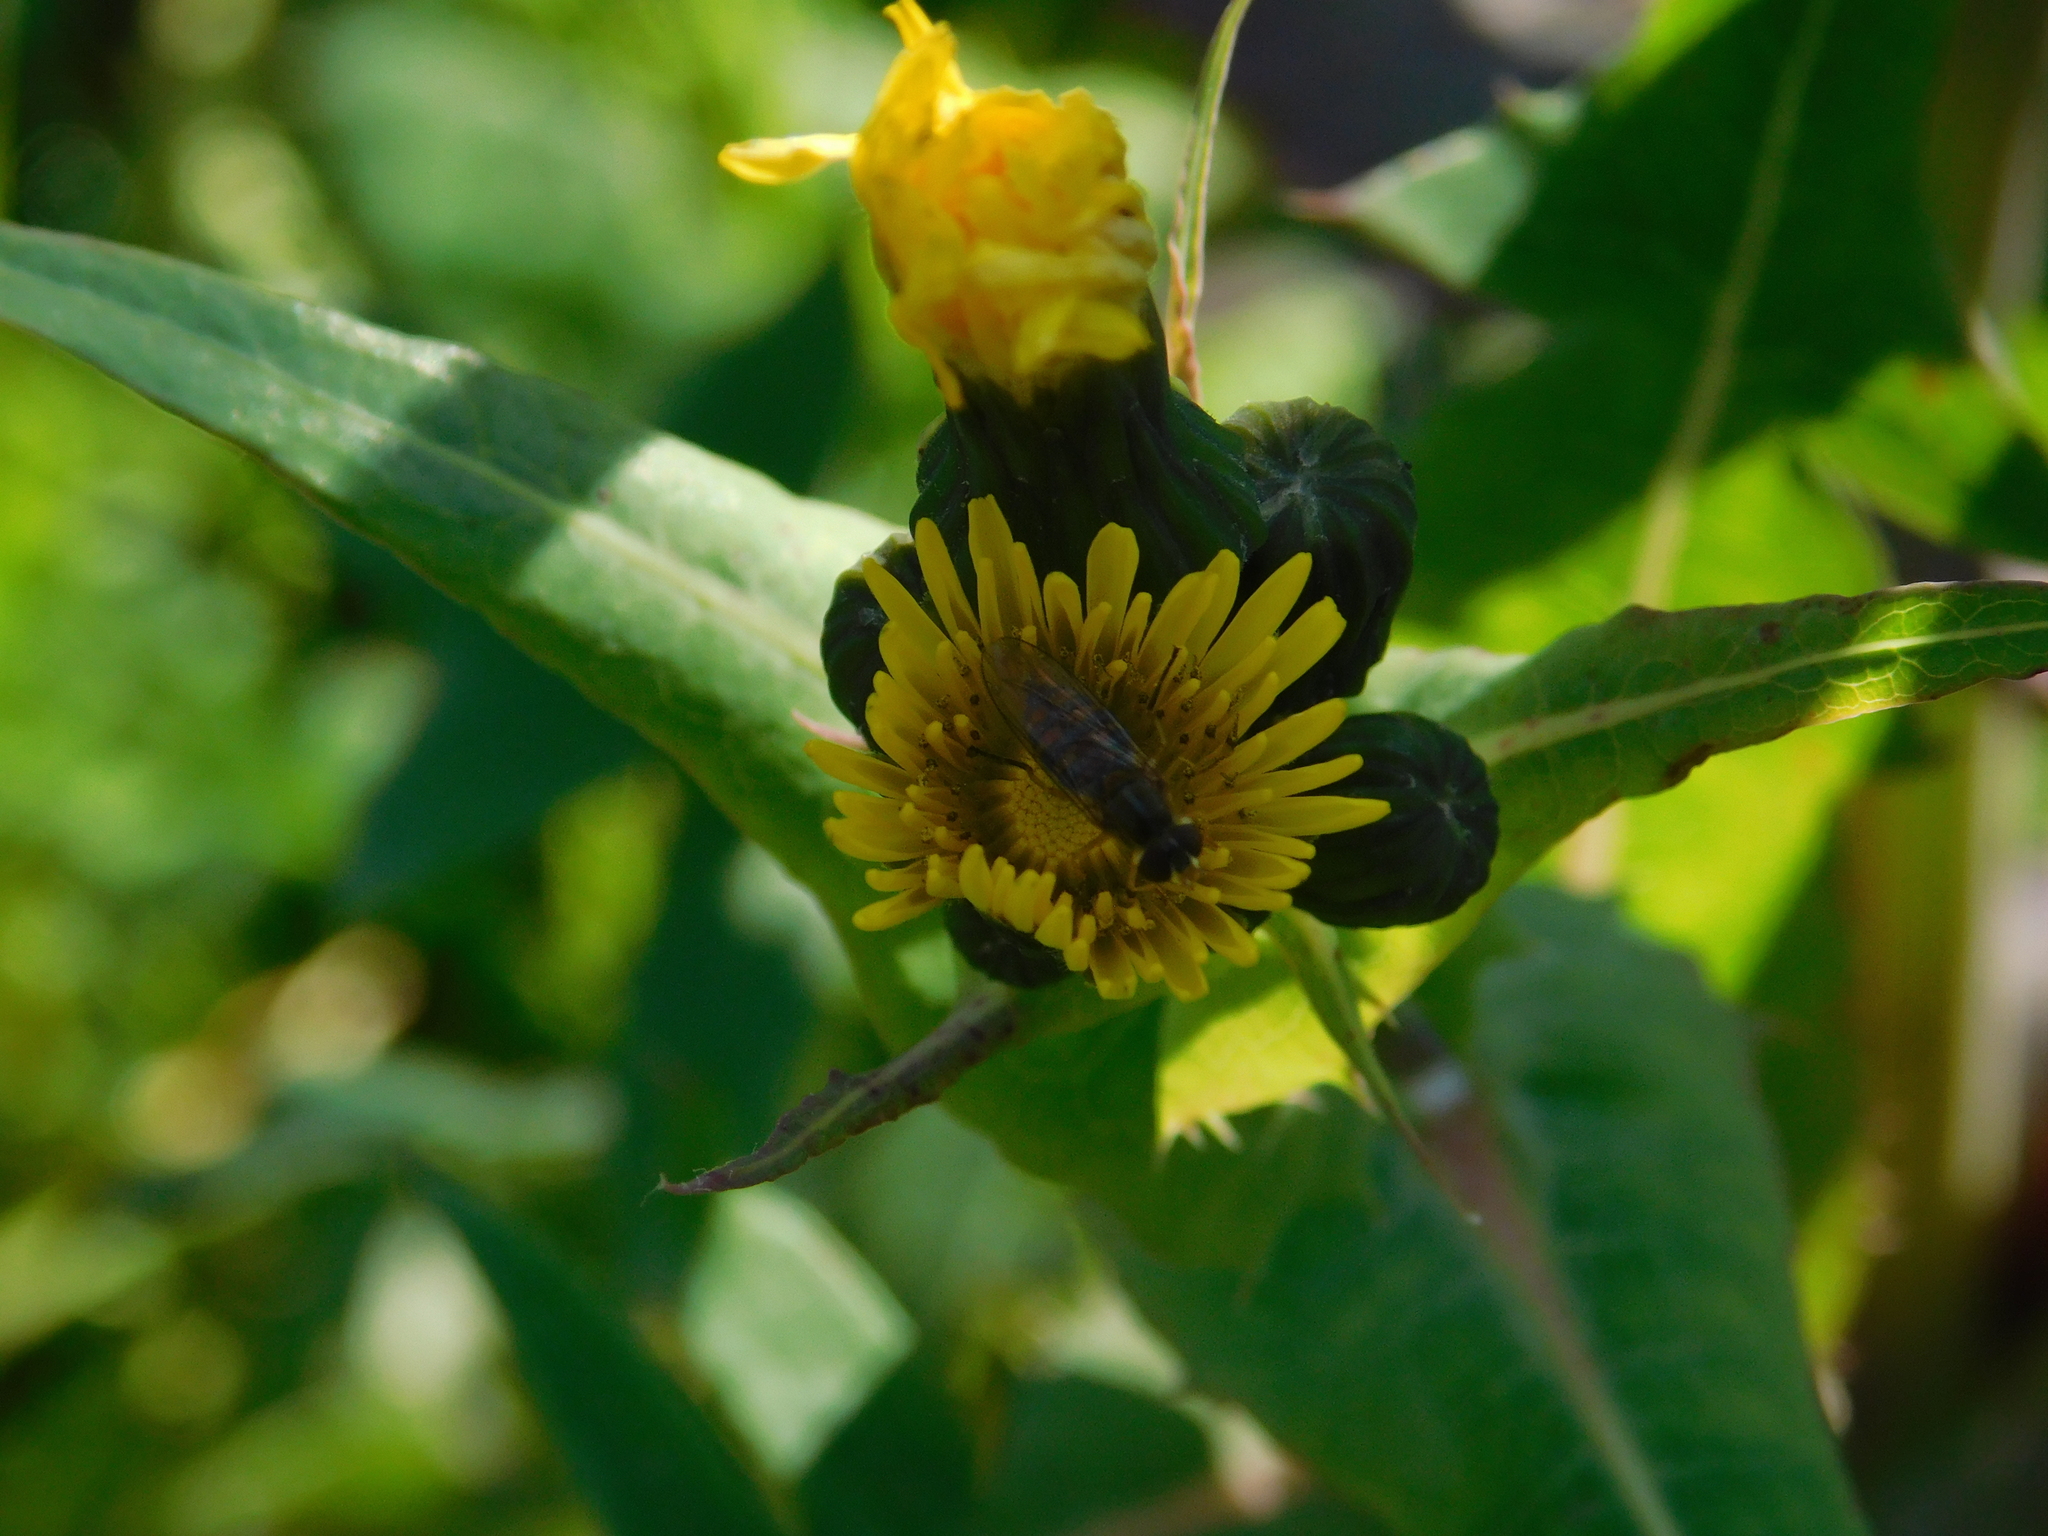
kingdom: Animalia
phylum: Arthropoda
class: Insecta
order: Diptera
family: Syrphidae
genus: Toxomerus
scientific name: Toxomerus
